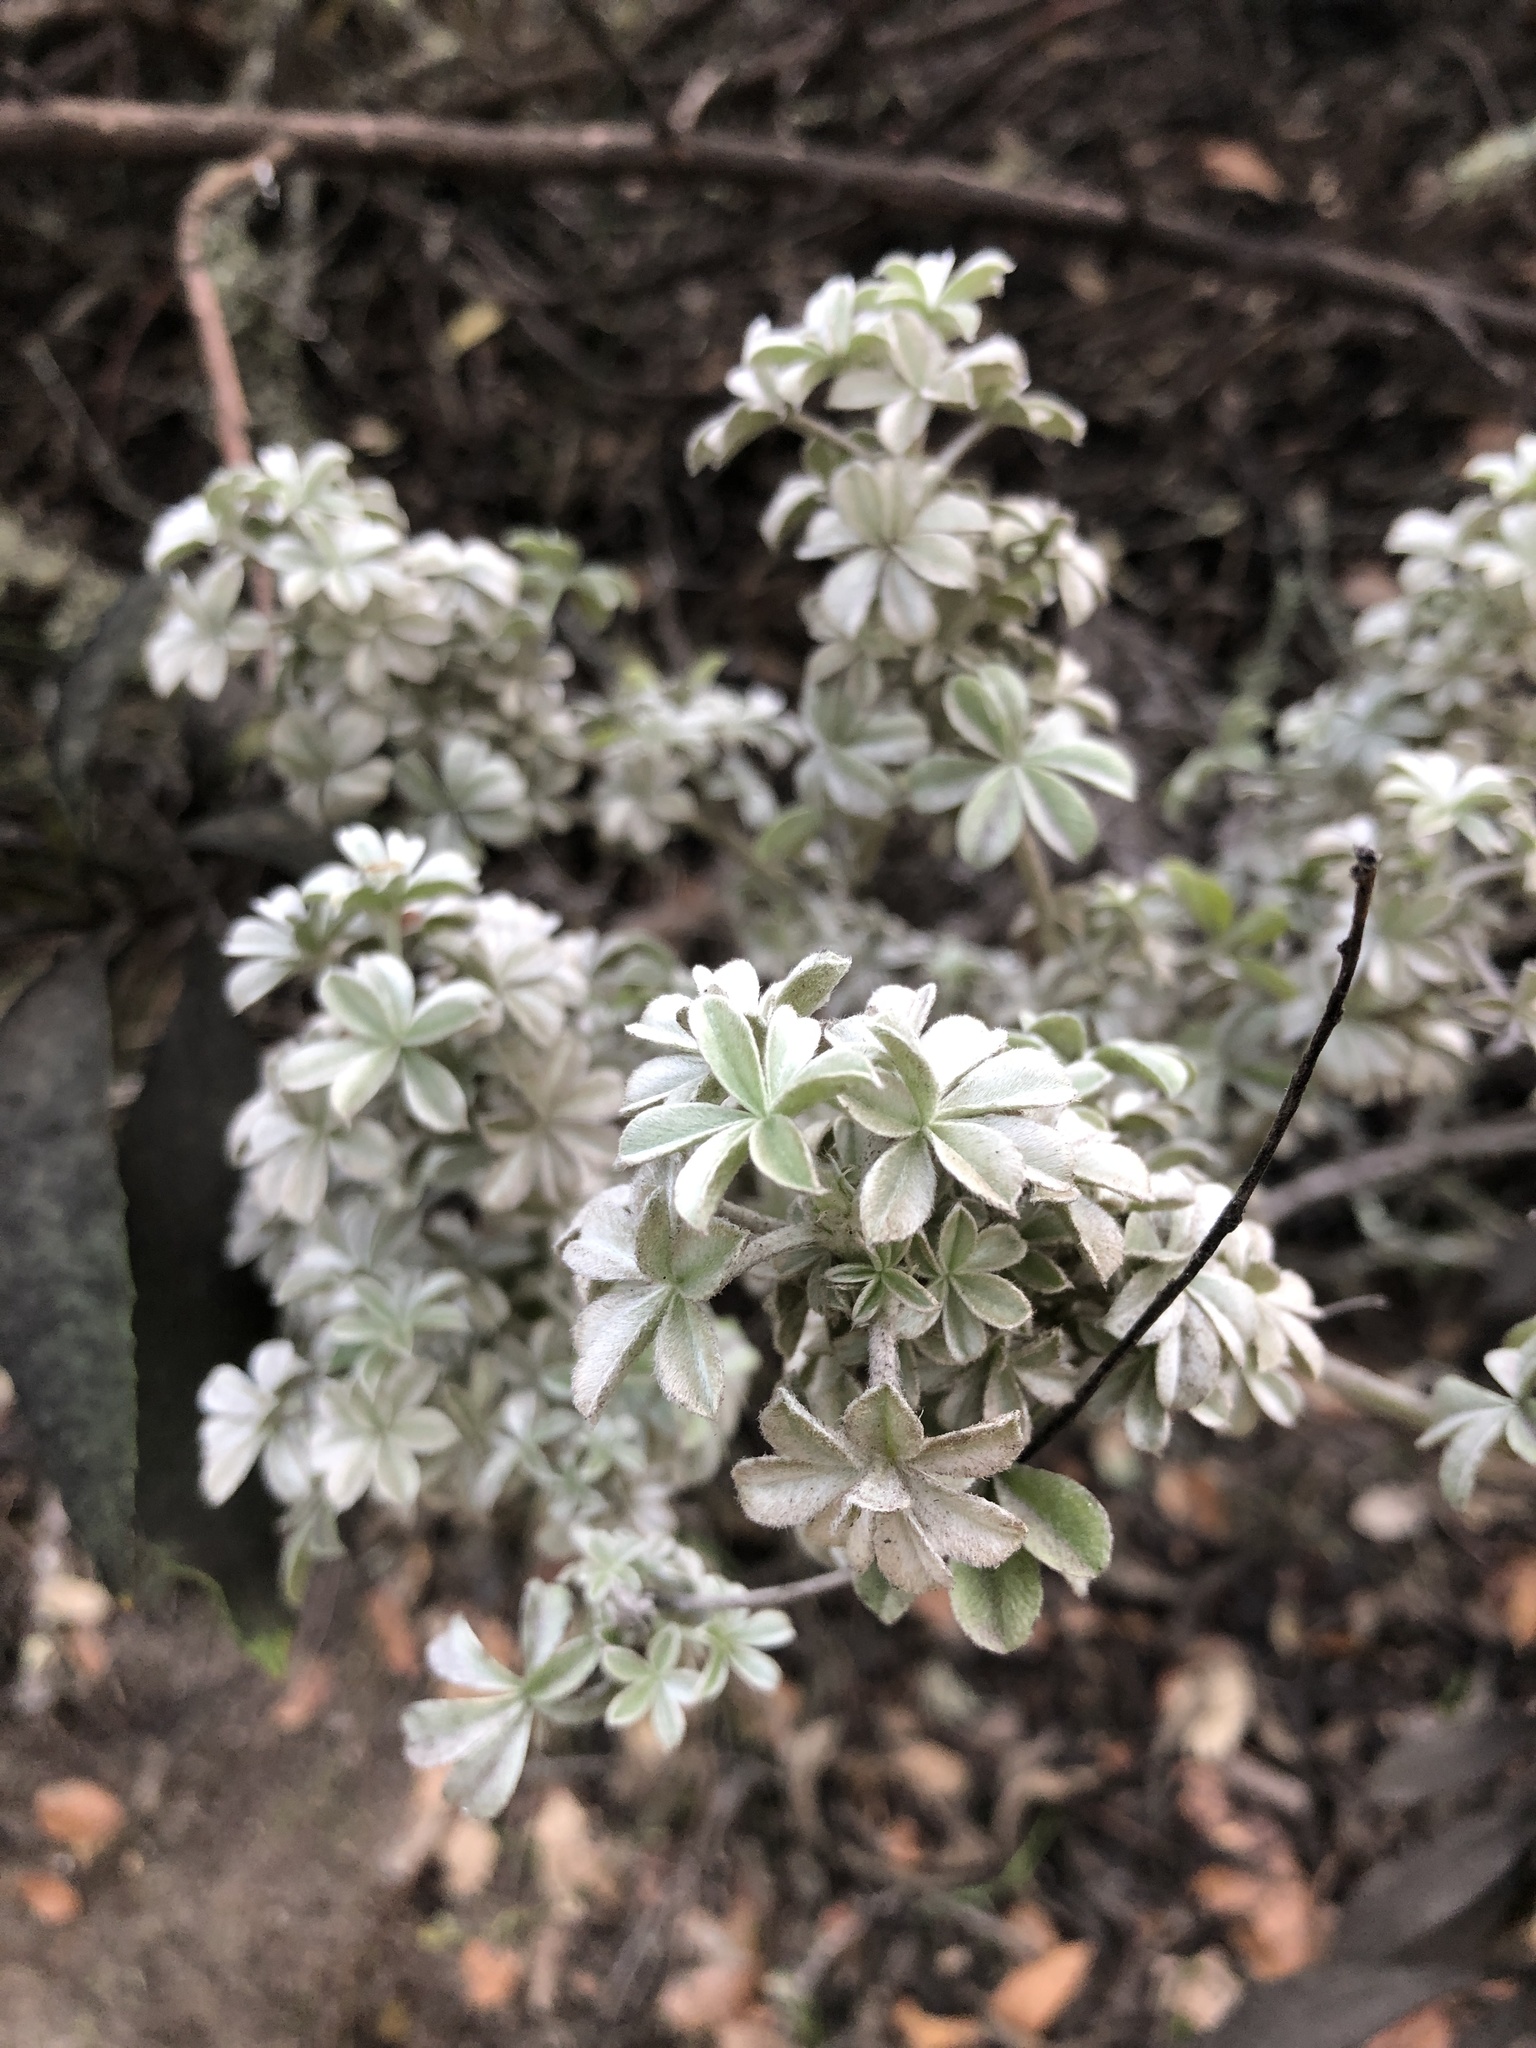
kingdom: Plantae
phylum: Tracheophyta
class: Magnoliopsida
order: Fabales
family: Fabaceae
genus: Lupinus
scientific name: Lupinus albifrons
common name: Foothill lupine
